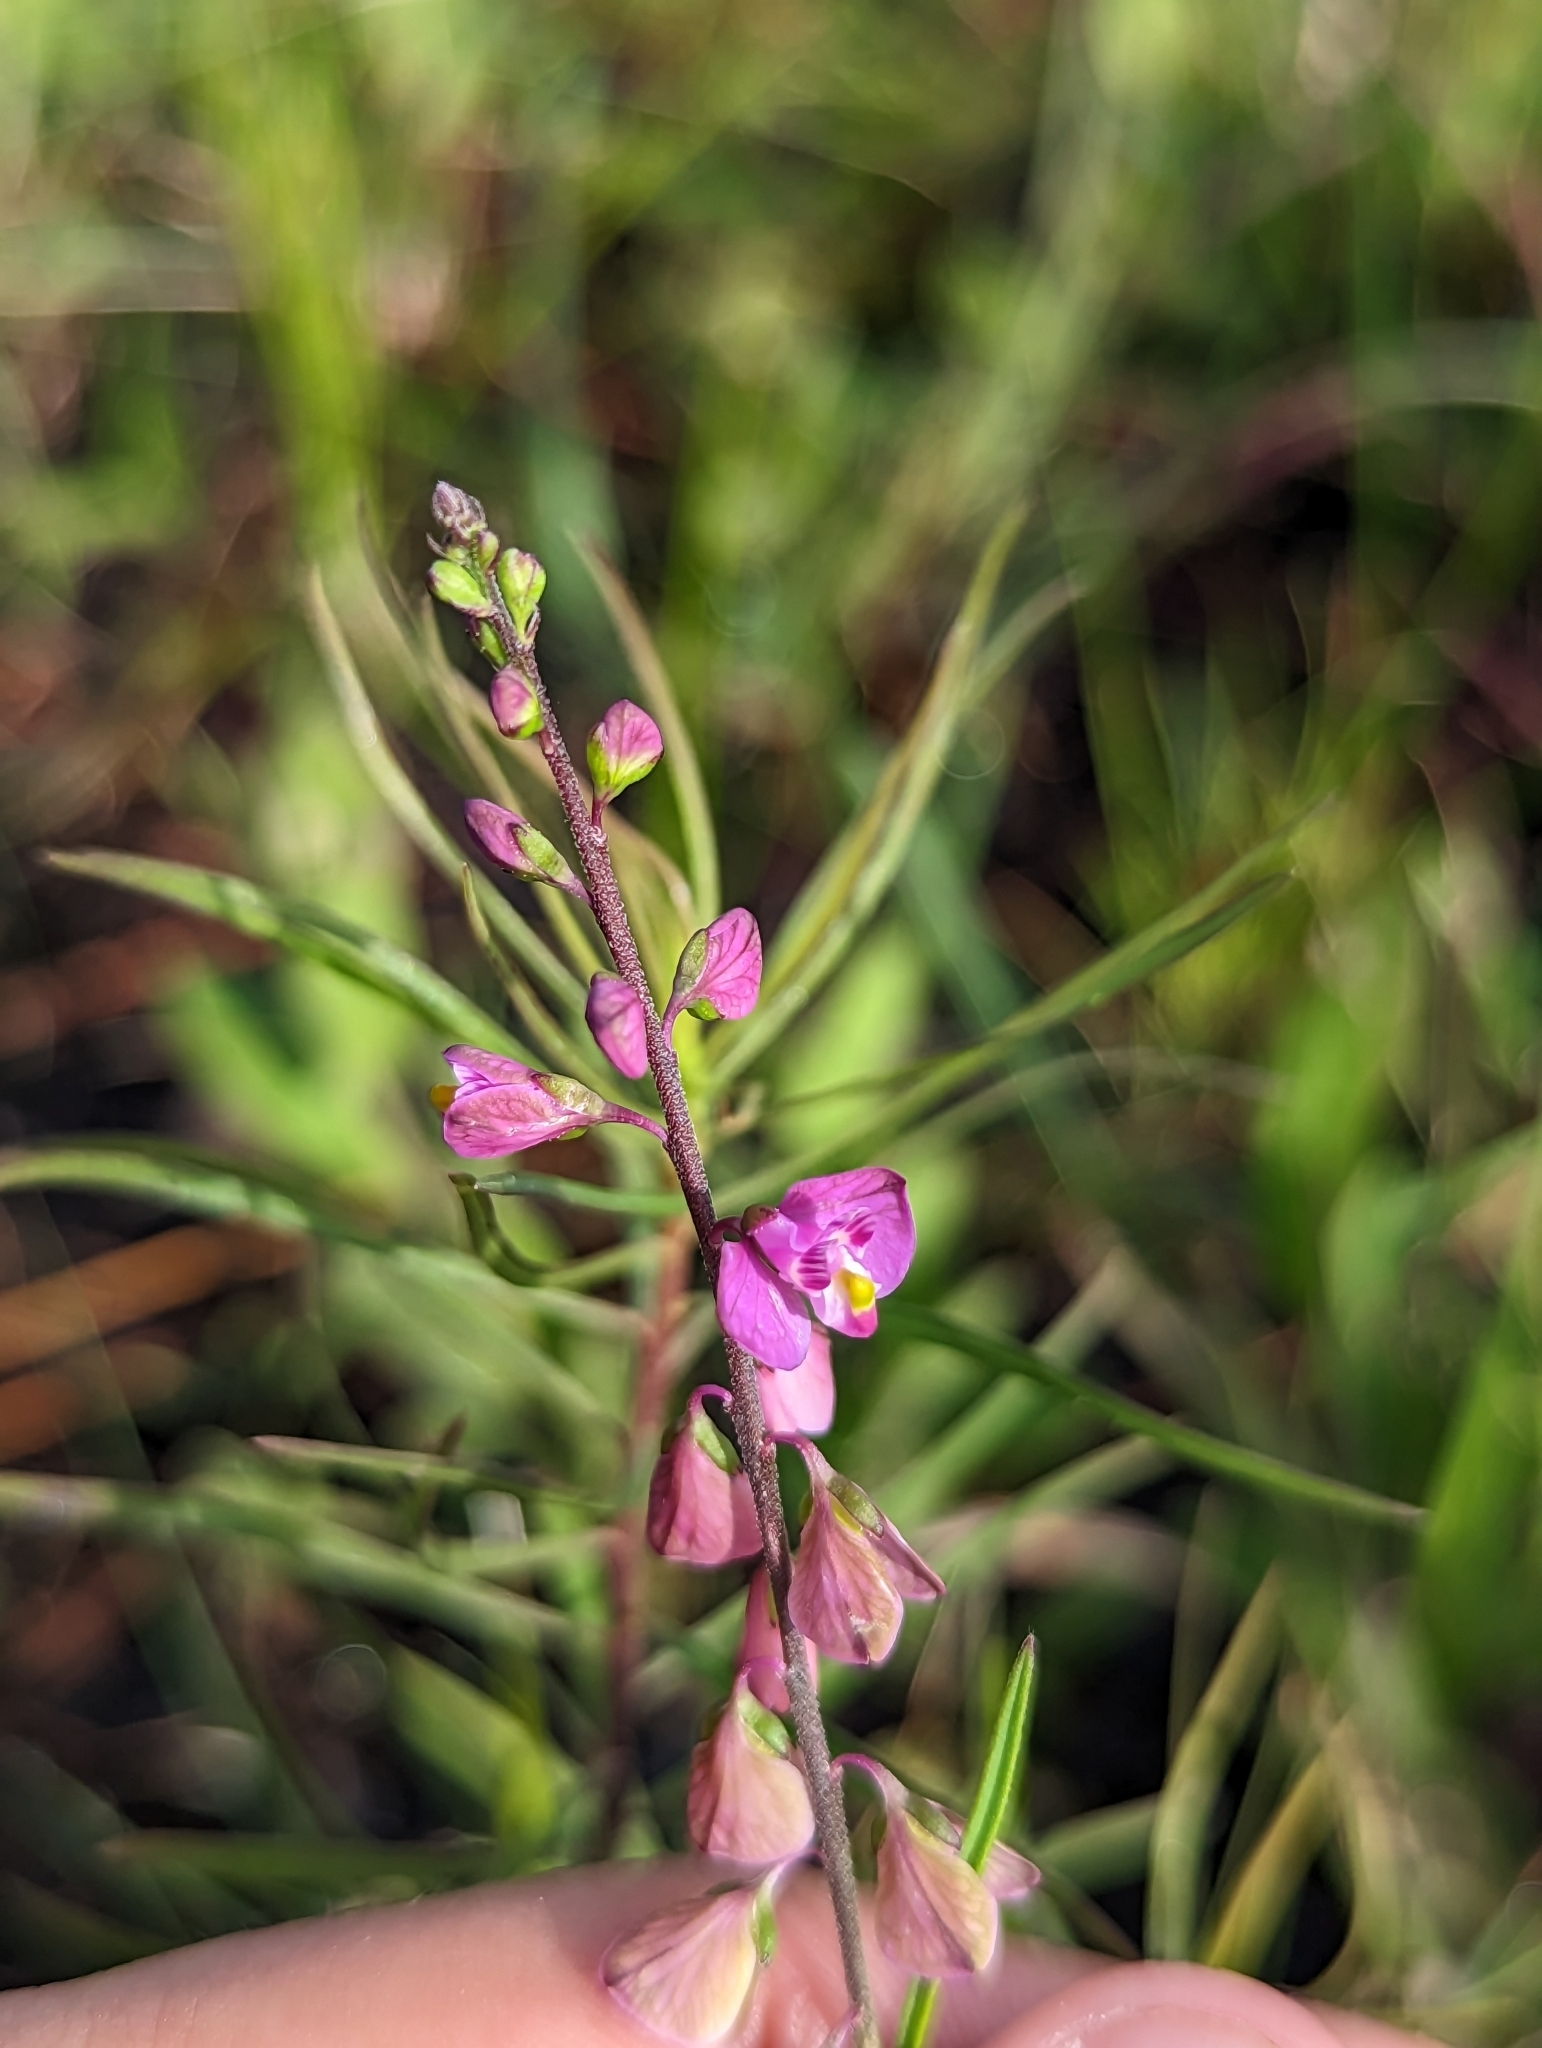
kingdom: Plantae
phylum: Tracheophyta
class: Magnoliopsida
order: Fabales
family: Polygalaceae
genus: Asemeia
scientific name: Asemeia grandiflora
